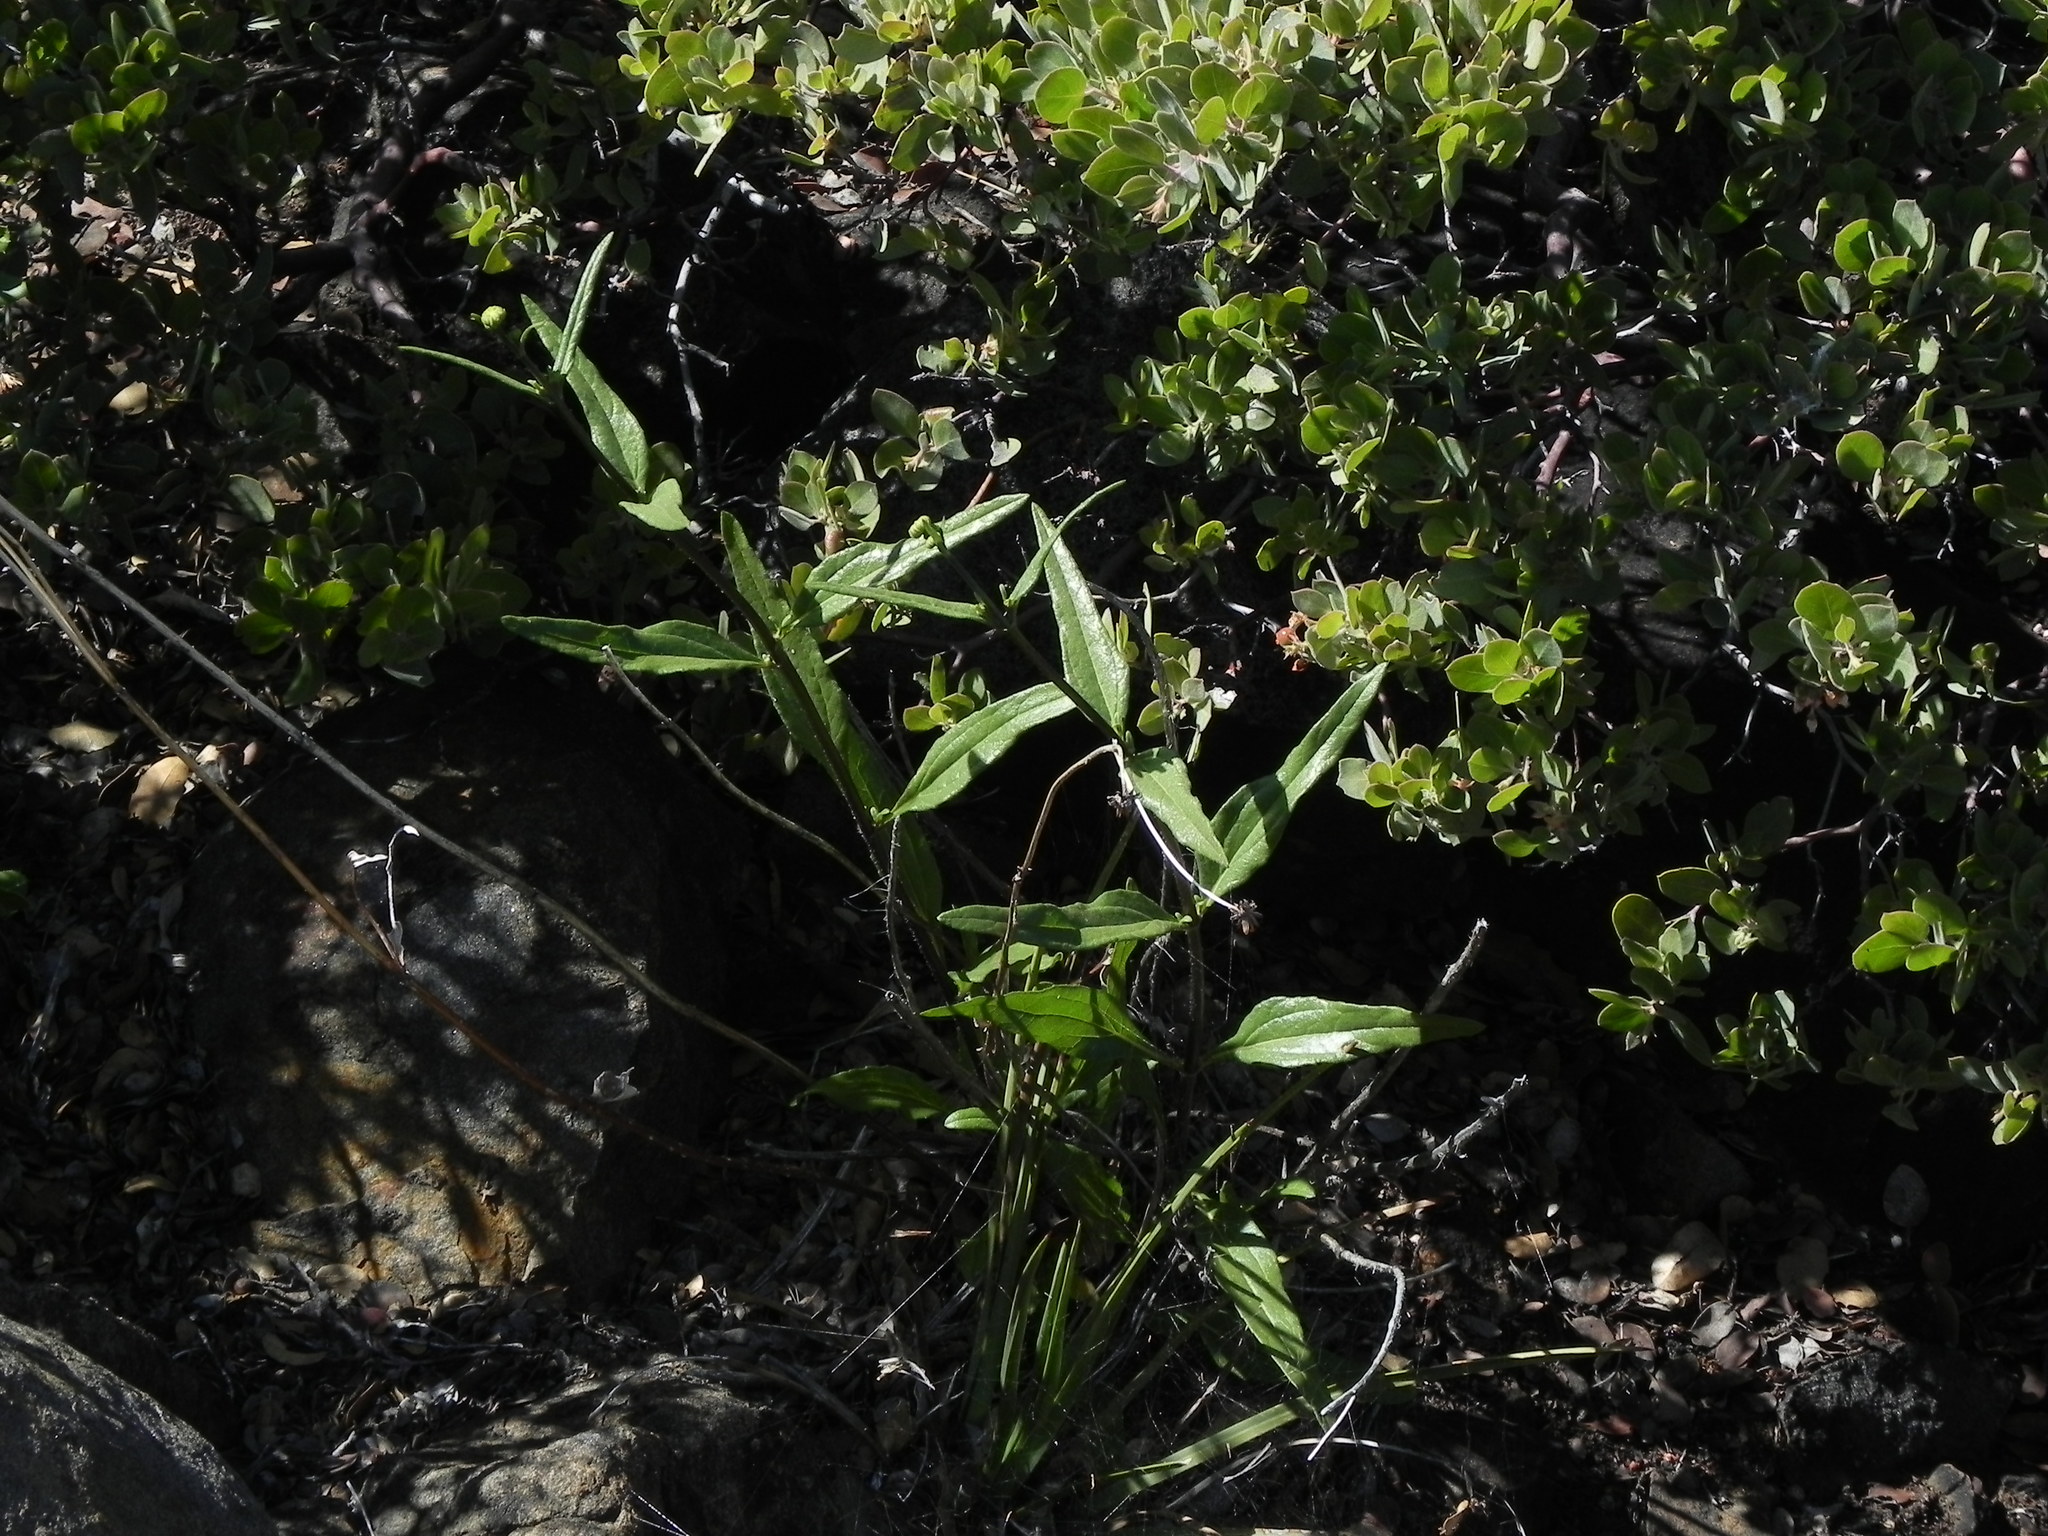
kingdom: Plantae
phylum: Tracheophyta
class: Magnoliopsida
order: Asterales
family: Asteraceae
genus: Helianthus
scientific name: Helianthus gracilentus
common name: Slender sunflower
